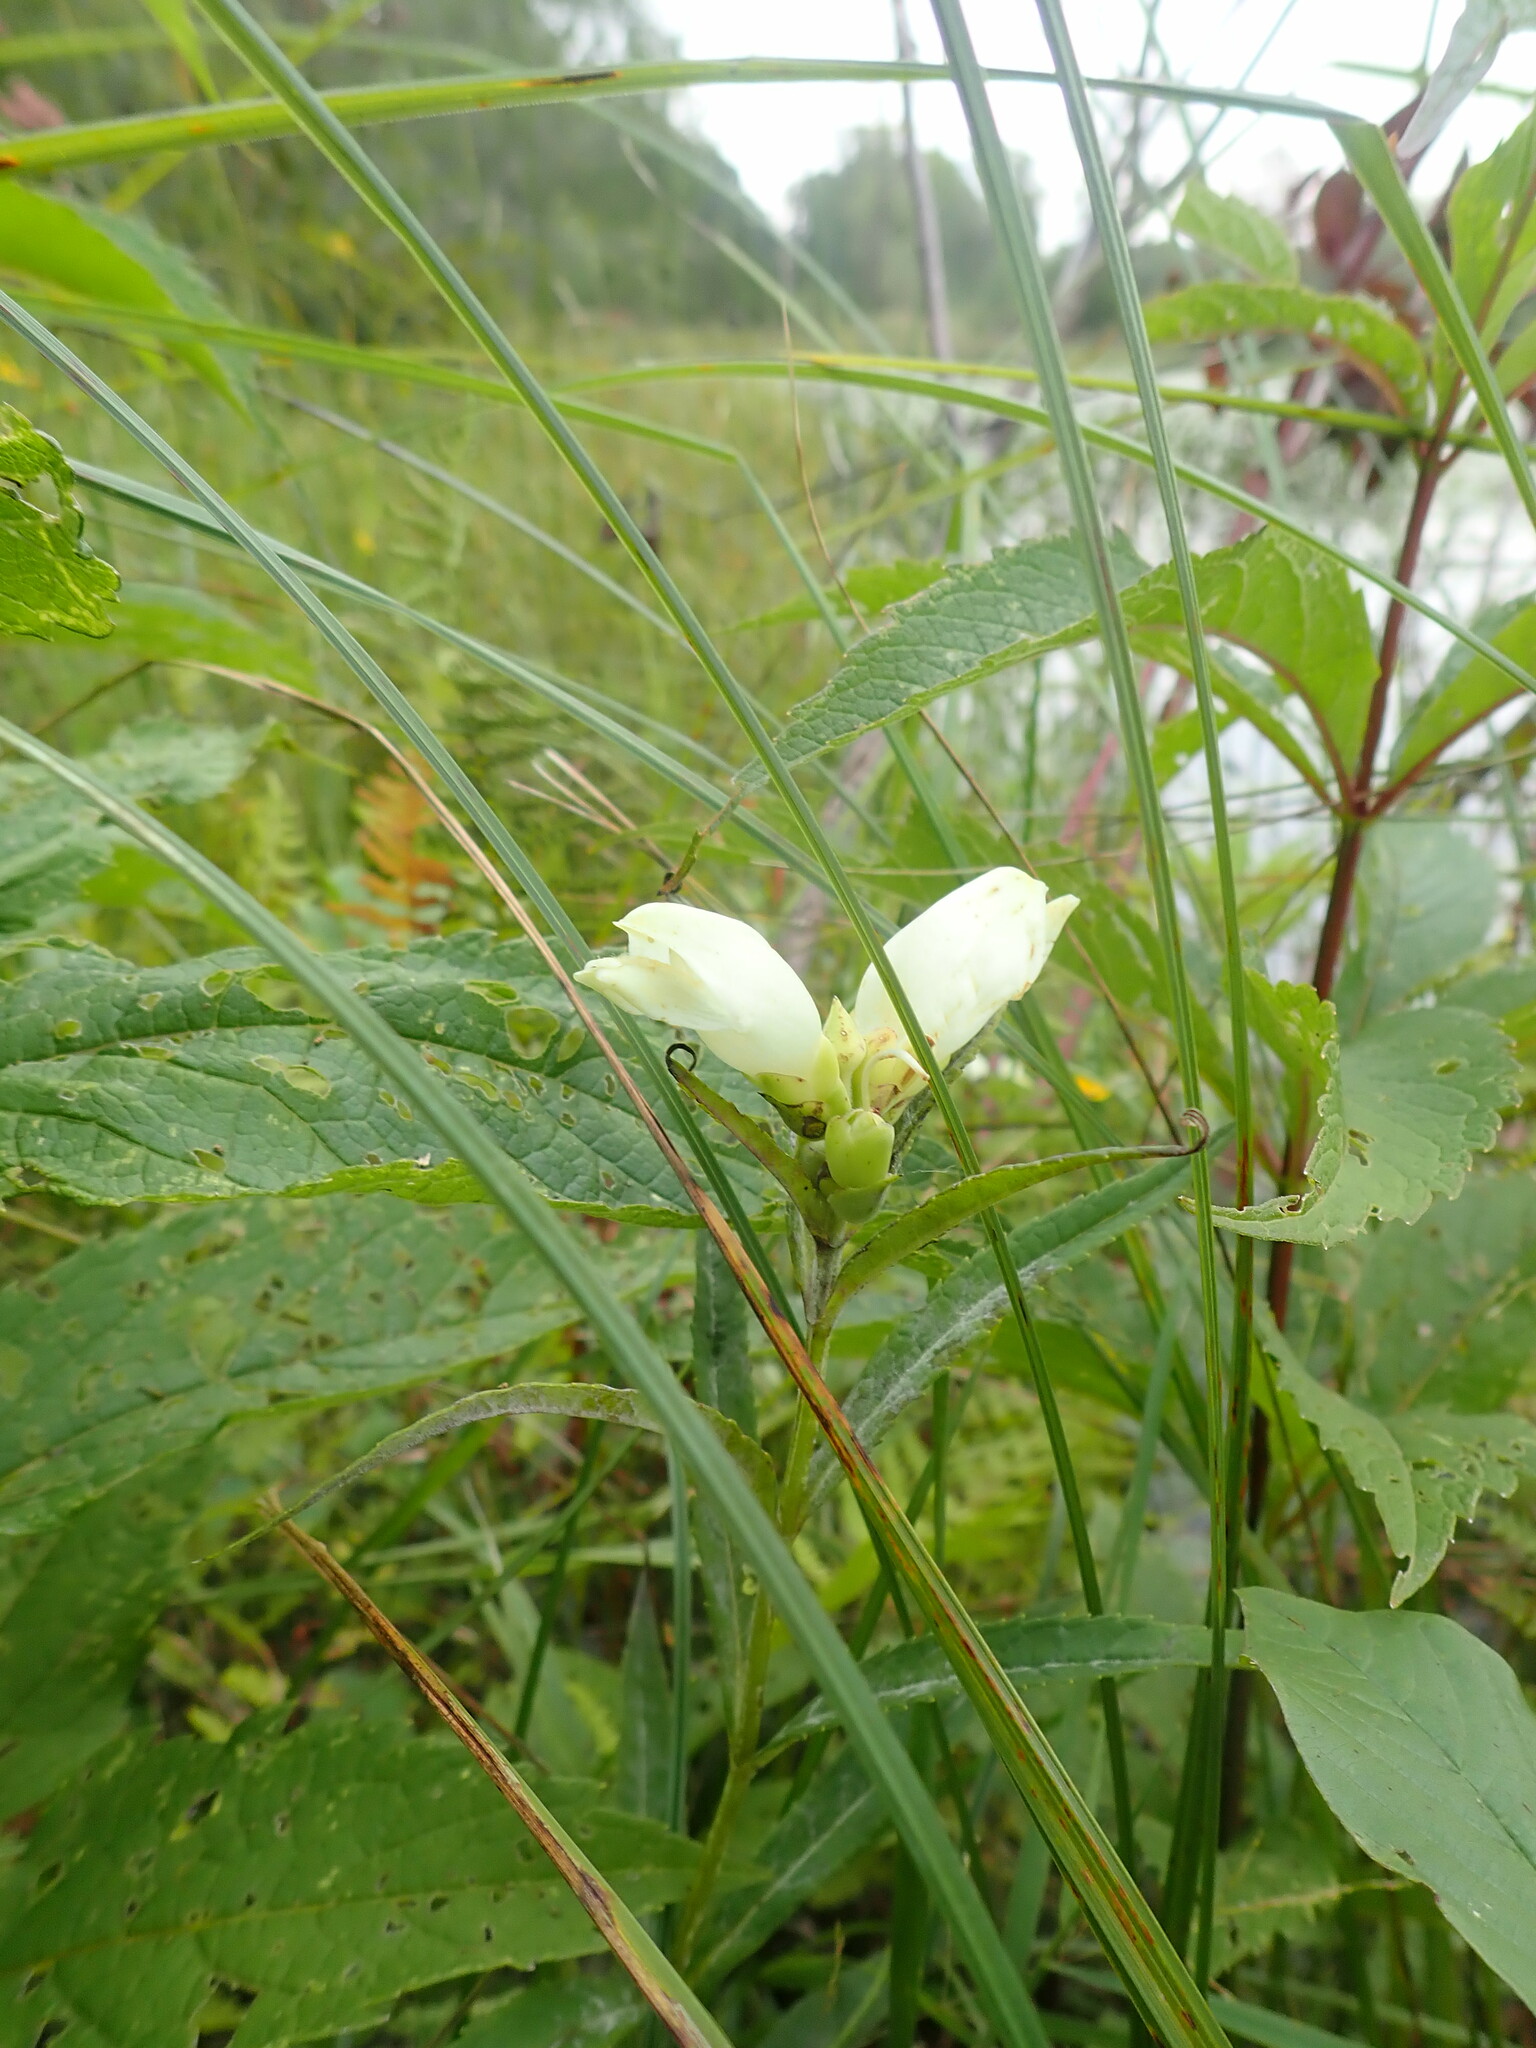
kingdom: Plantae
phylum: Tracheophyta
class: Magnoliopsida
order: Lamiales
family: Plantaginaceae
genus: Chelone
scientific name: Chelone glabra
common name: Snakehead
